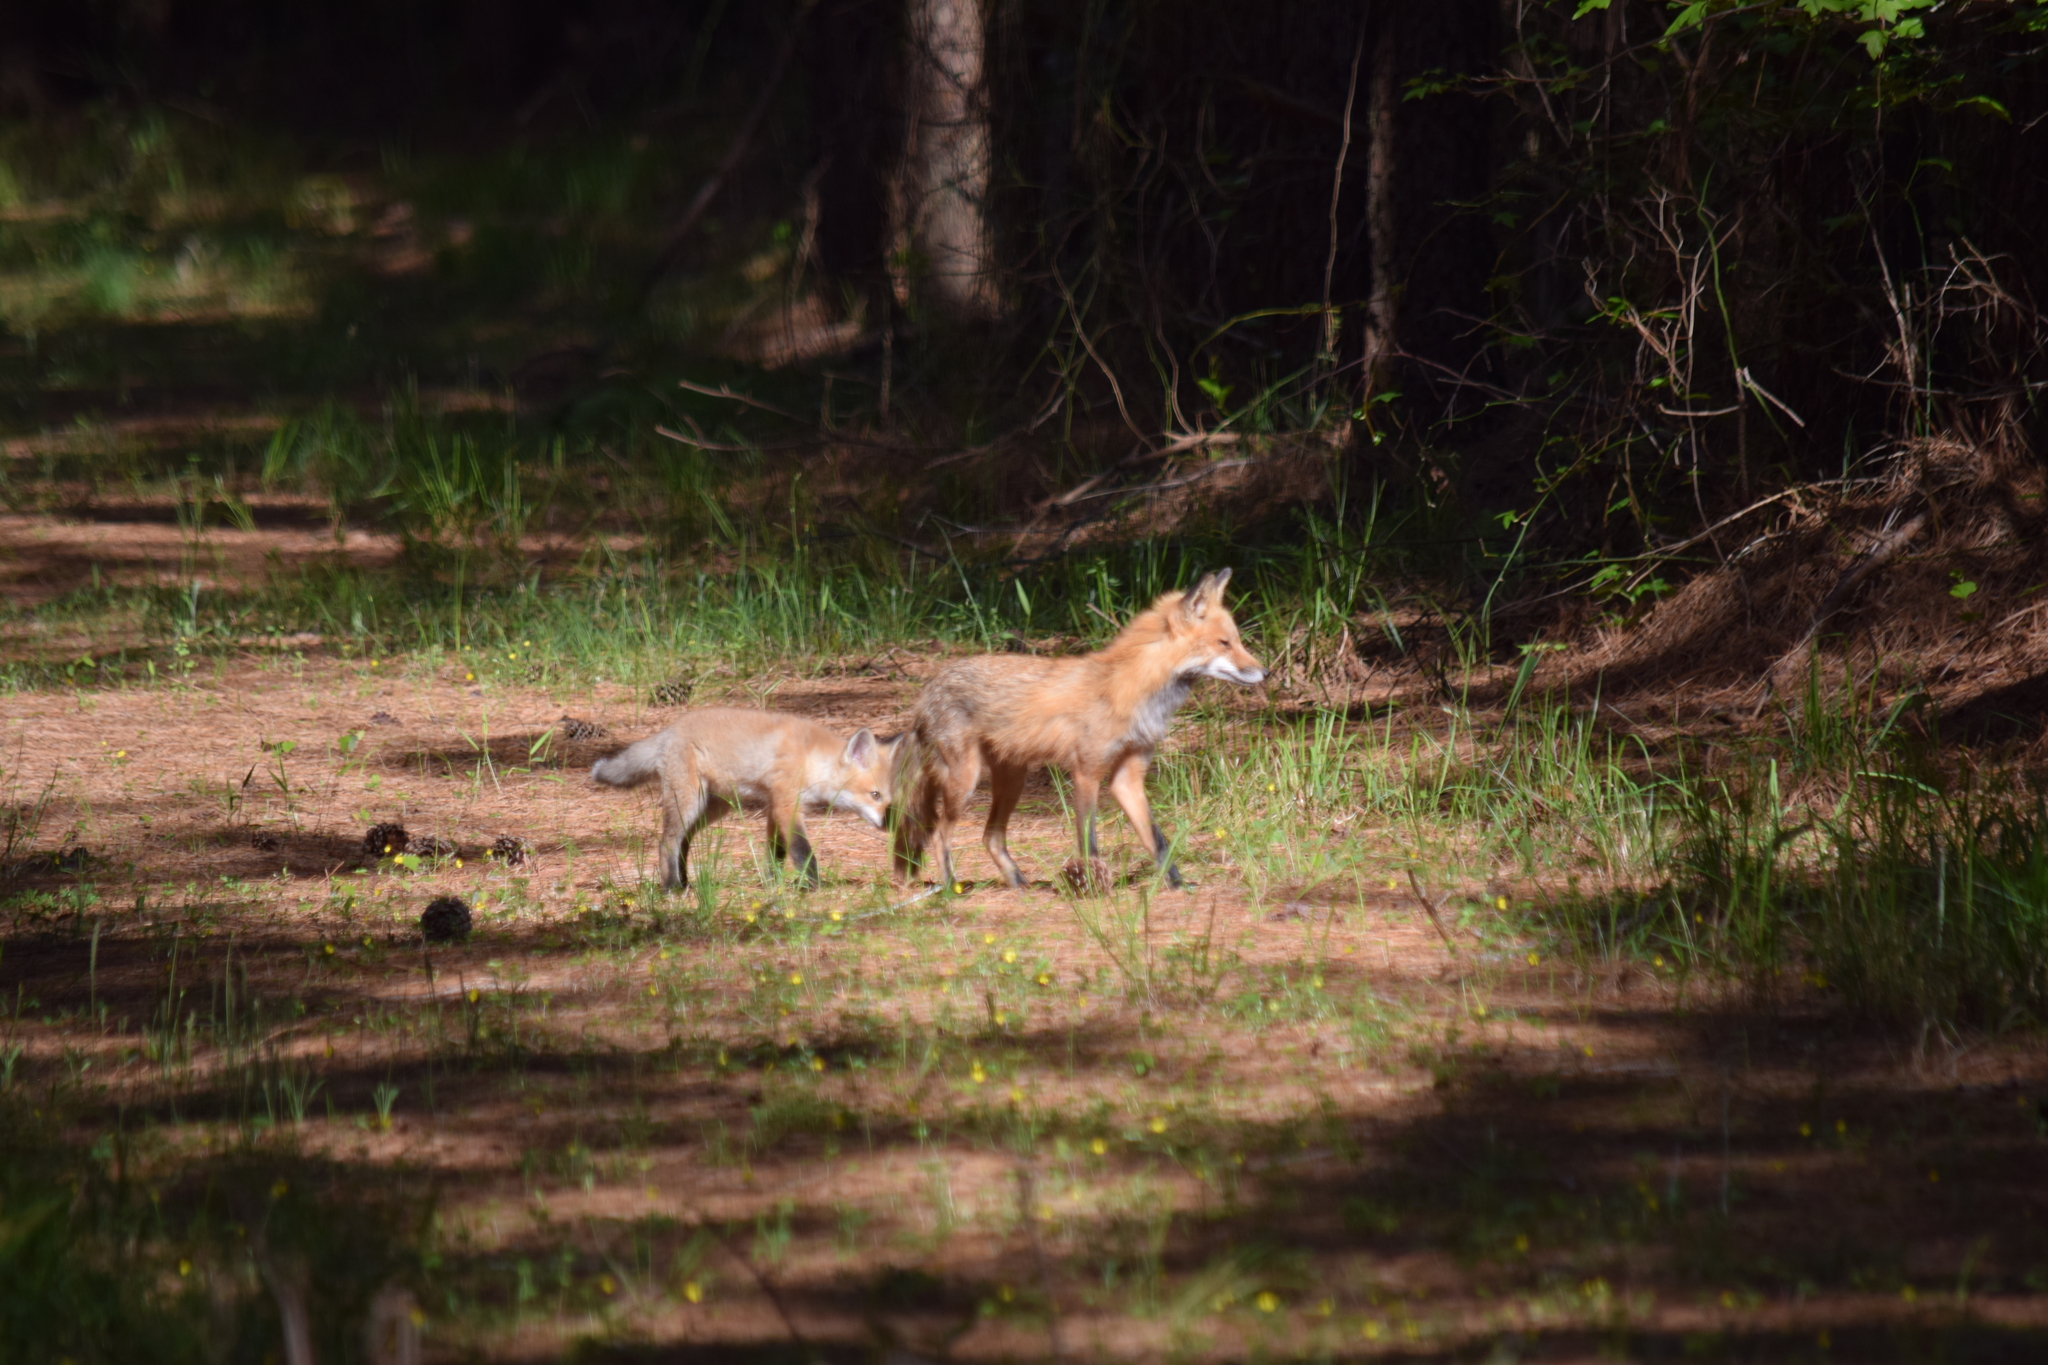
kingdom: Animalia
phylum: Chordata
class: Mammalia
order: Carnivora
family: Canidae
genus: Vulpes
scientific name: Vulpes vulpes
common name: Red fox
